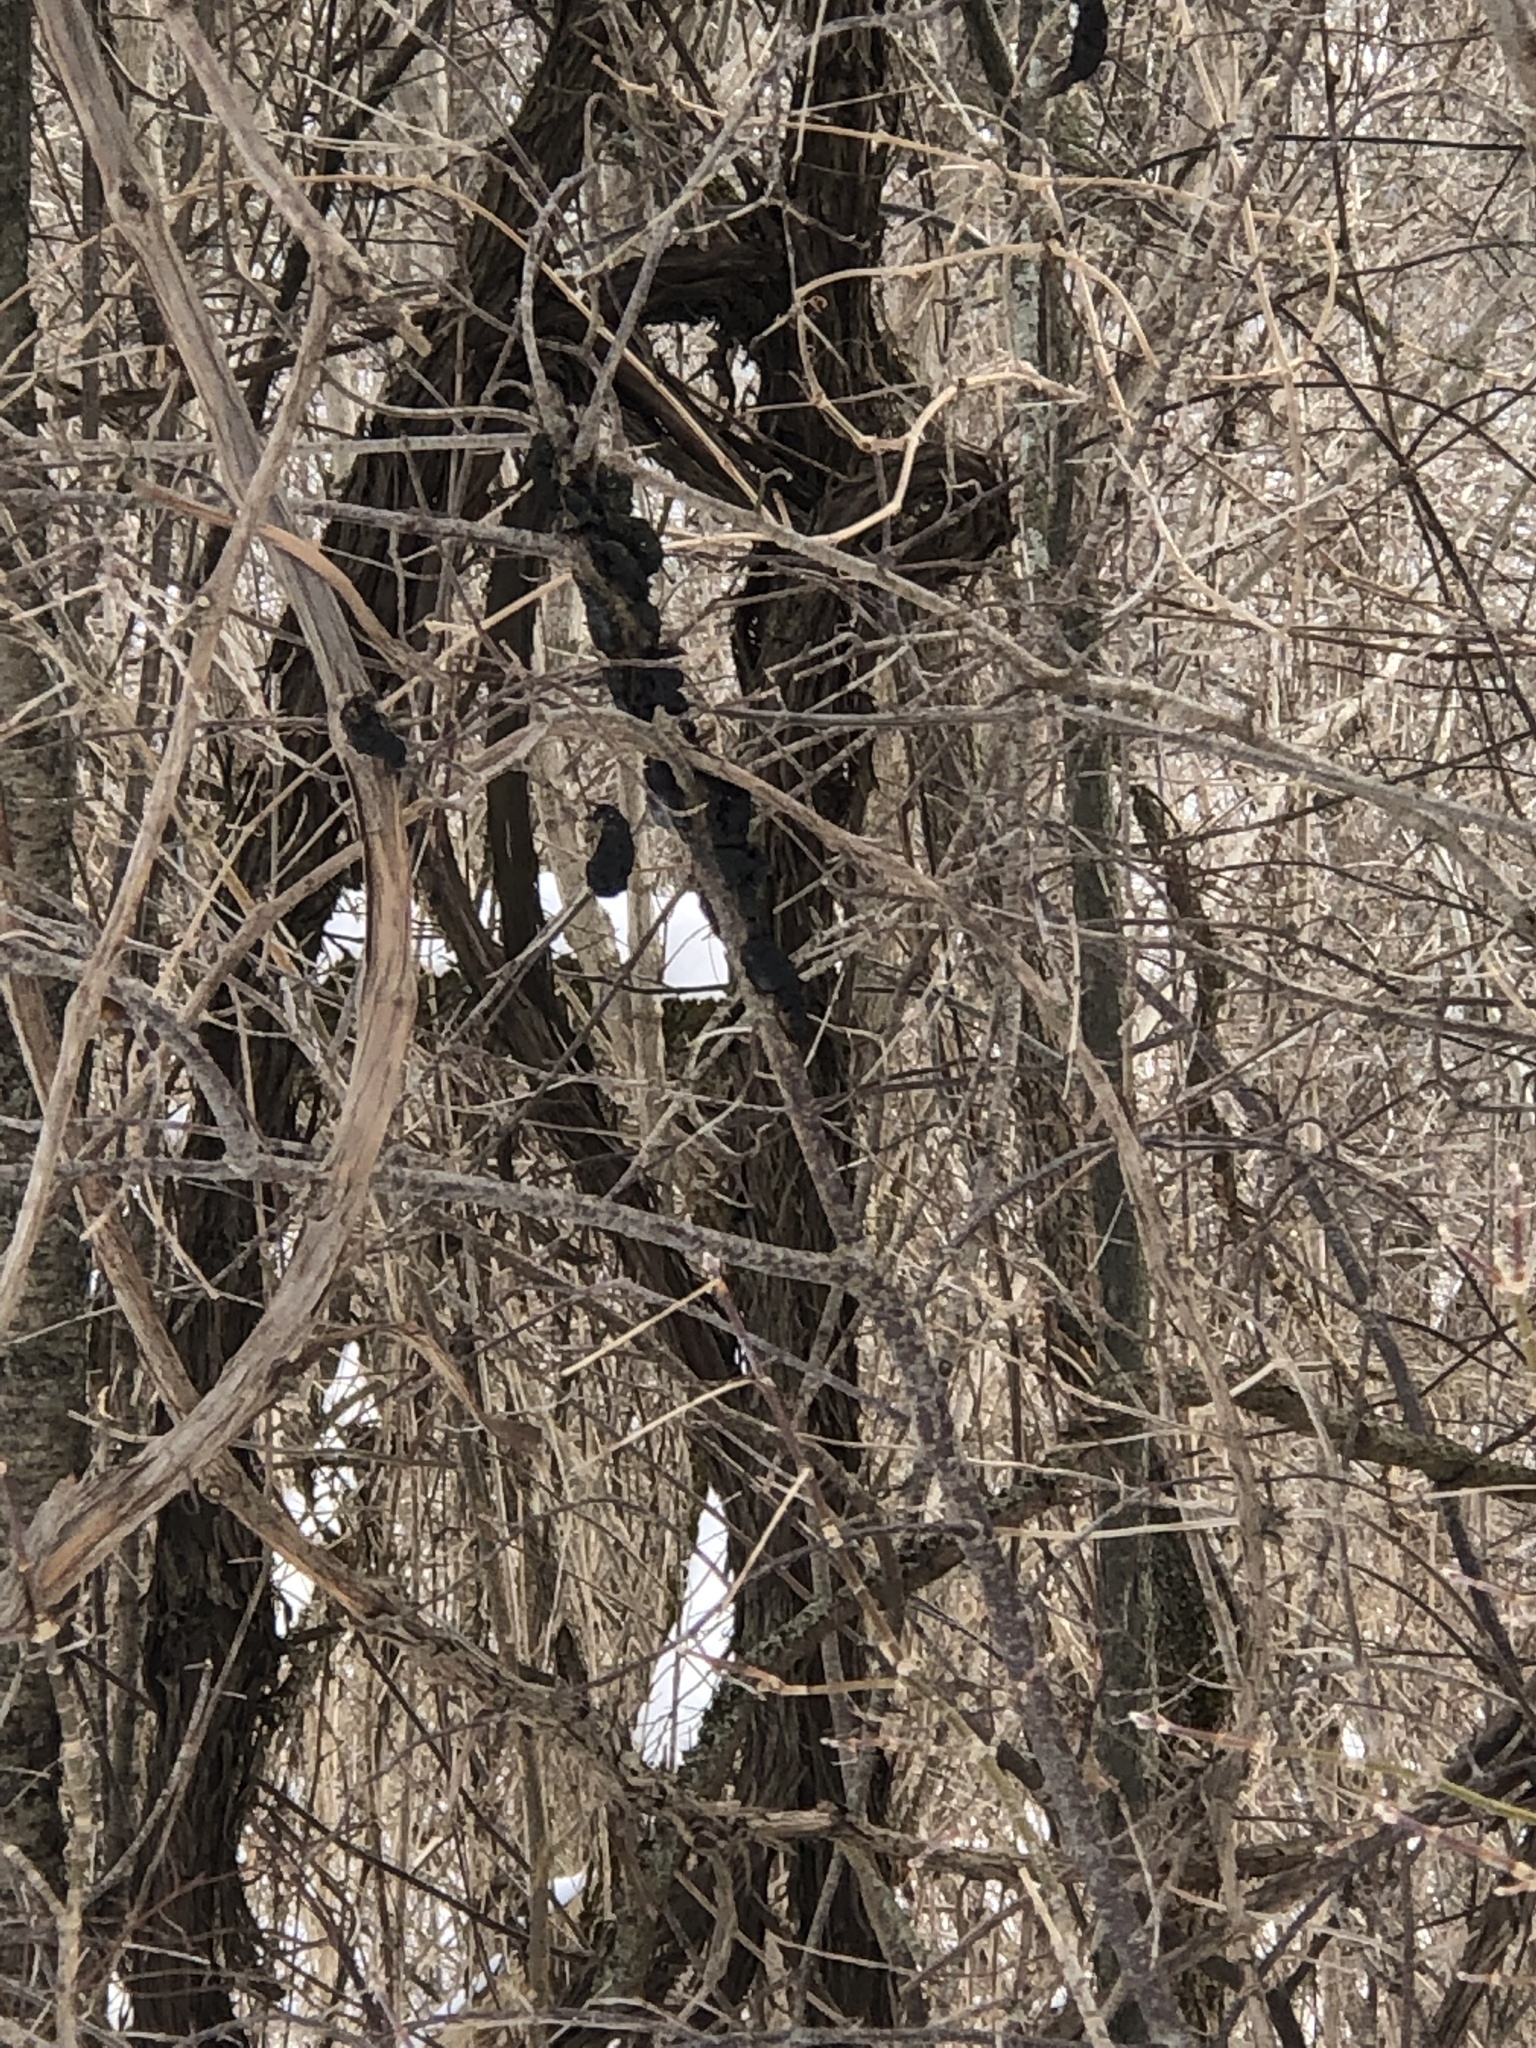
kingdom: Fungi
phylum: Ascomycota
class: Dothideomycetes
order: Venturiales
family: Venturiaceae
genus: Apiosporina
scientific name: Apiosporina morbosa
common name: Black knot
